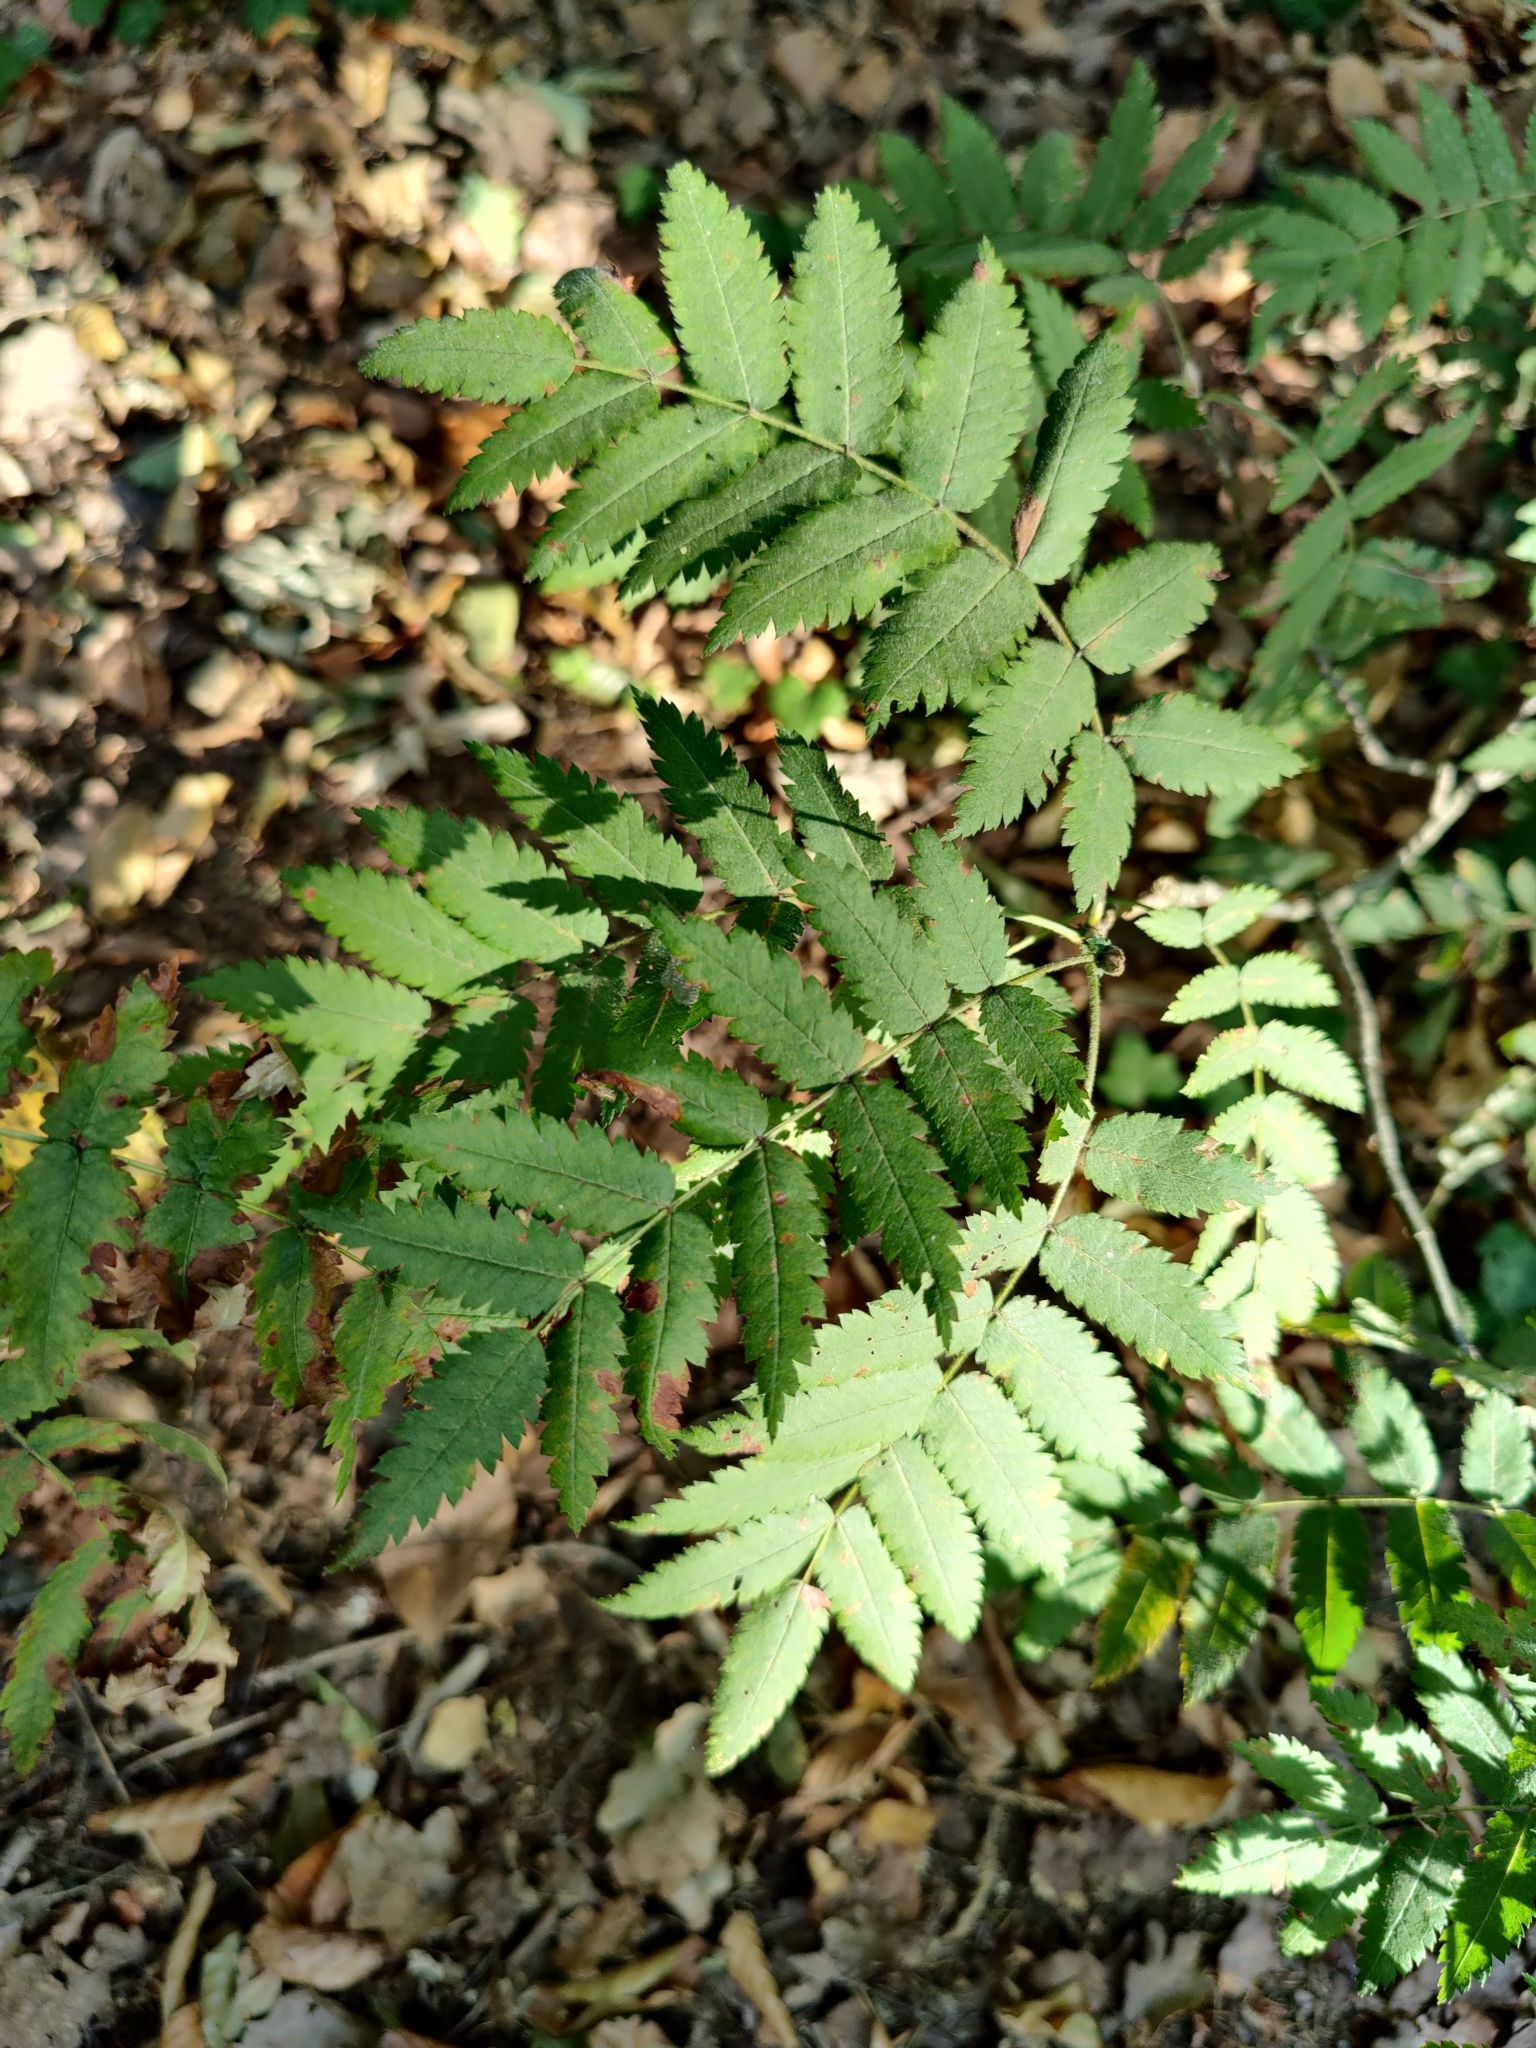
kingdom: Plantae
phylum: Tracheophyta
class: Magnoliopsida
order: Rosales
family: Rosaceae
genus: Sorbus
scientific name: Sorbus aucuparia
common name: Rowan
